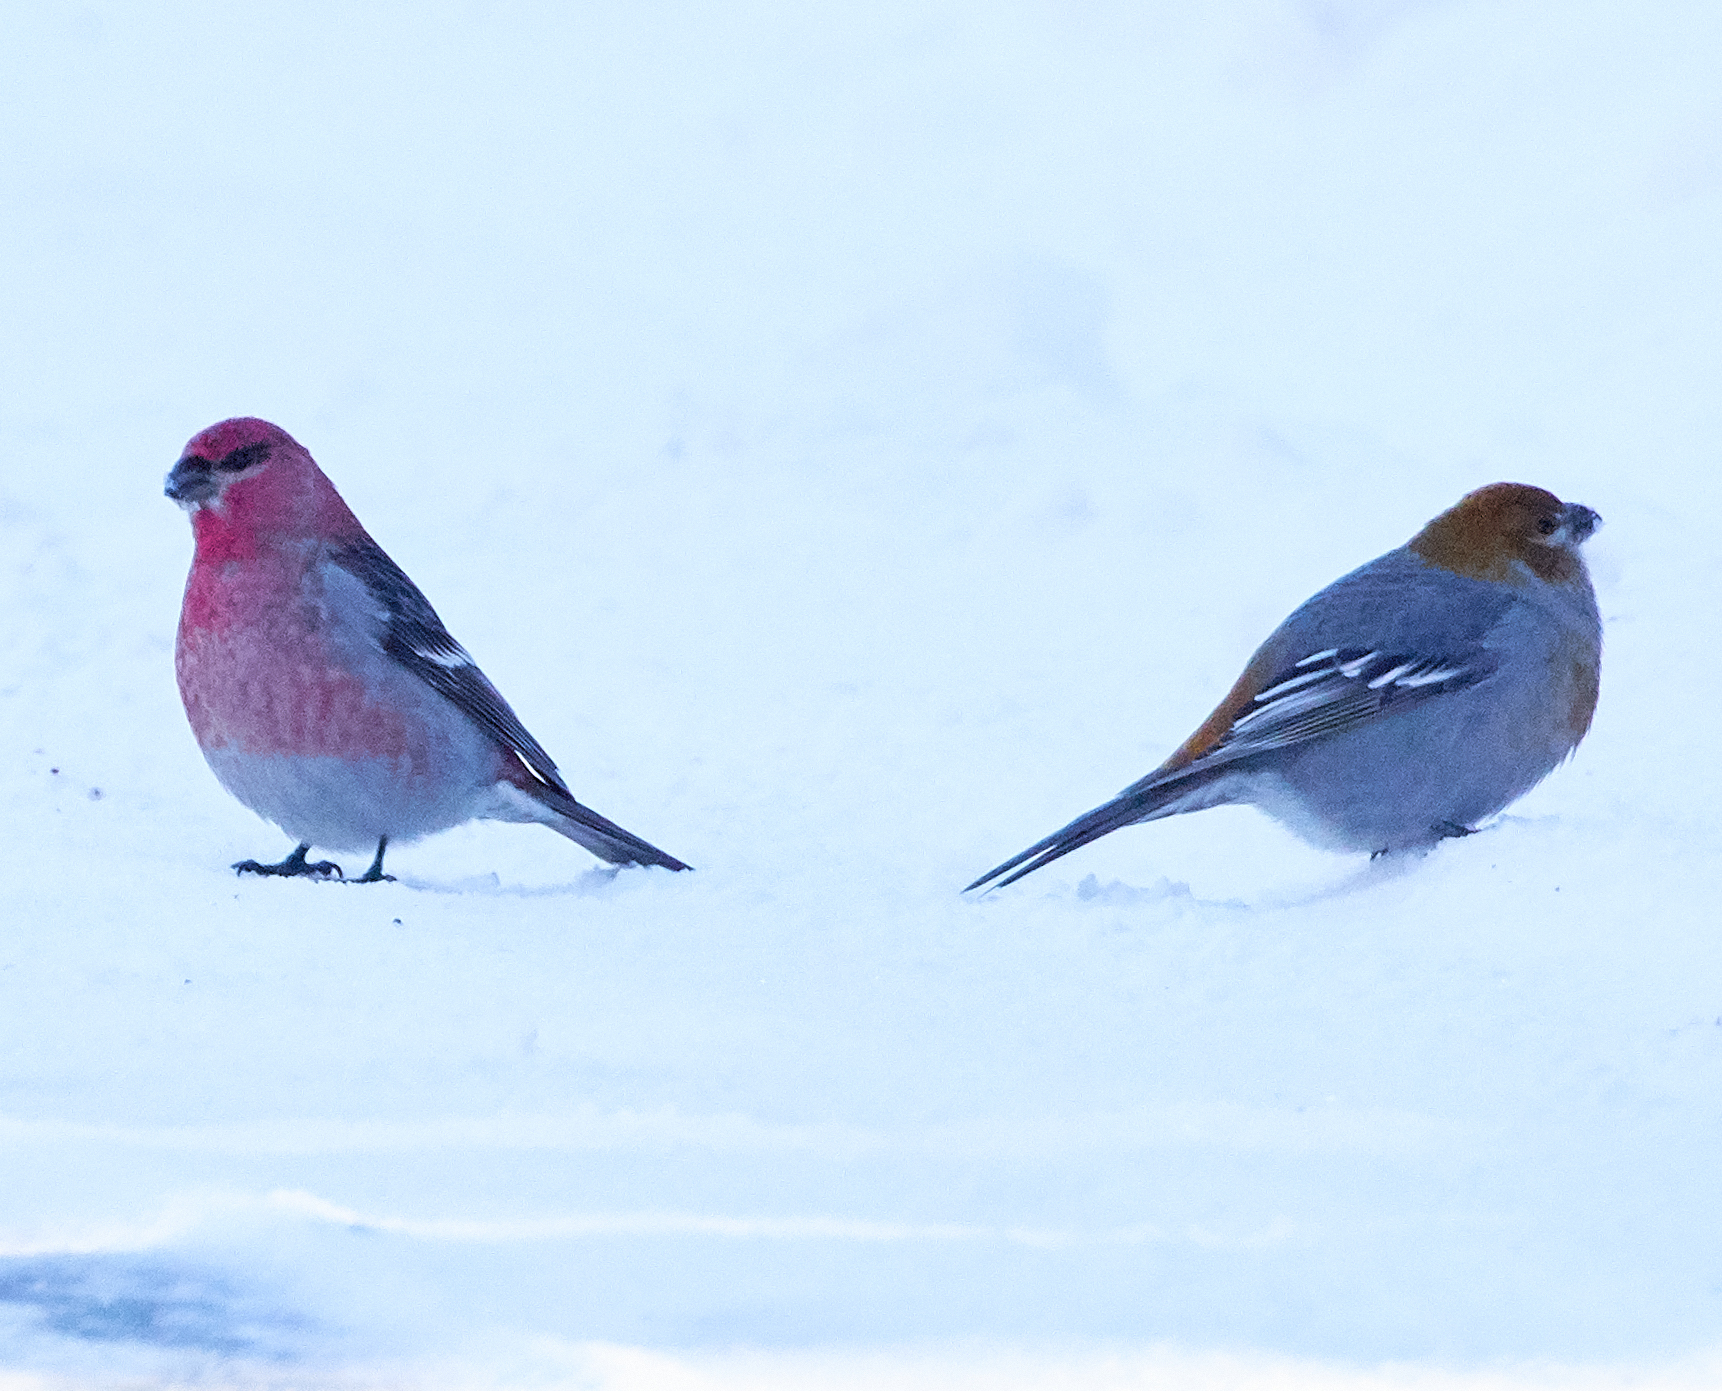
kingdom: Animalia
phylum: Chordata
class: Aves
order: Passeriformes
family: Fringillidae
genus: Pinicola
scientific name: Pinicola enucleator
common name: Pine grosbeak
